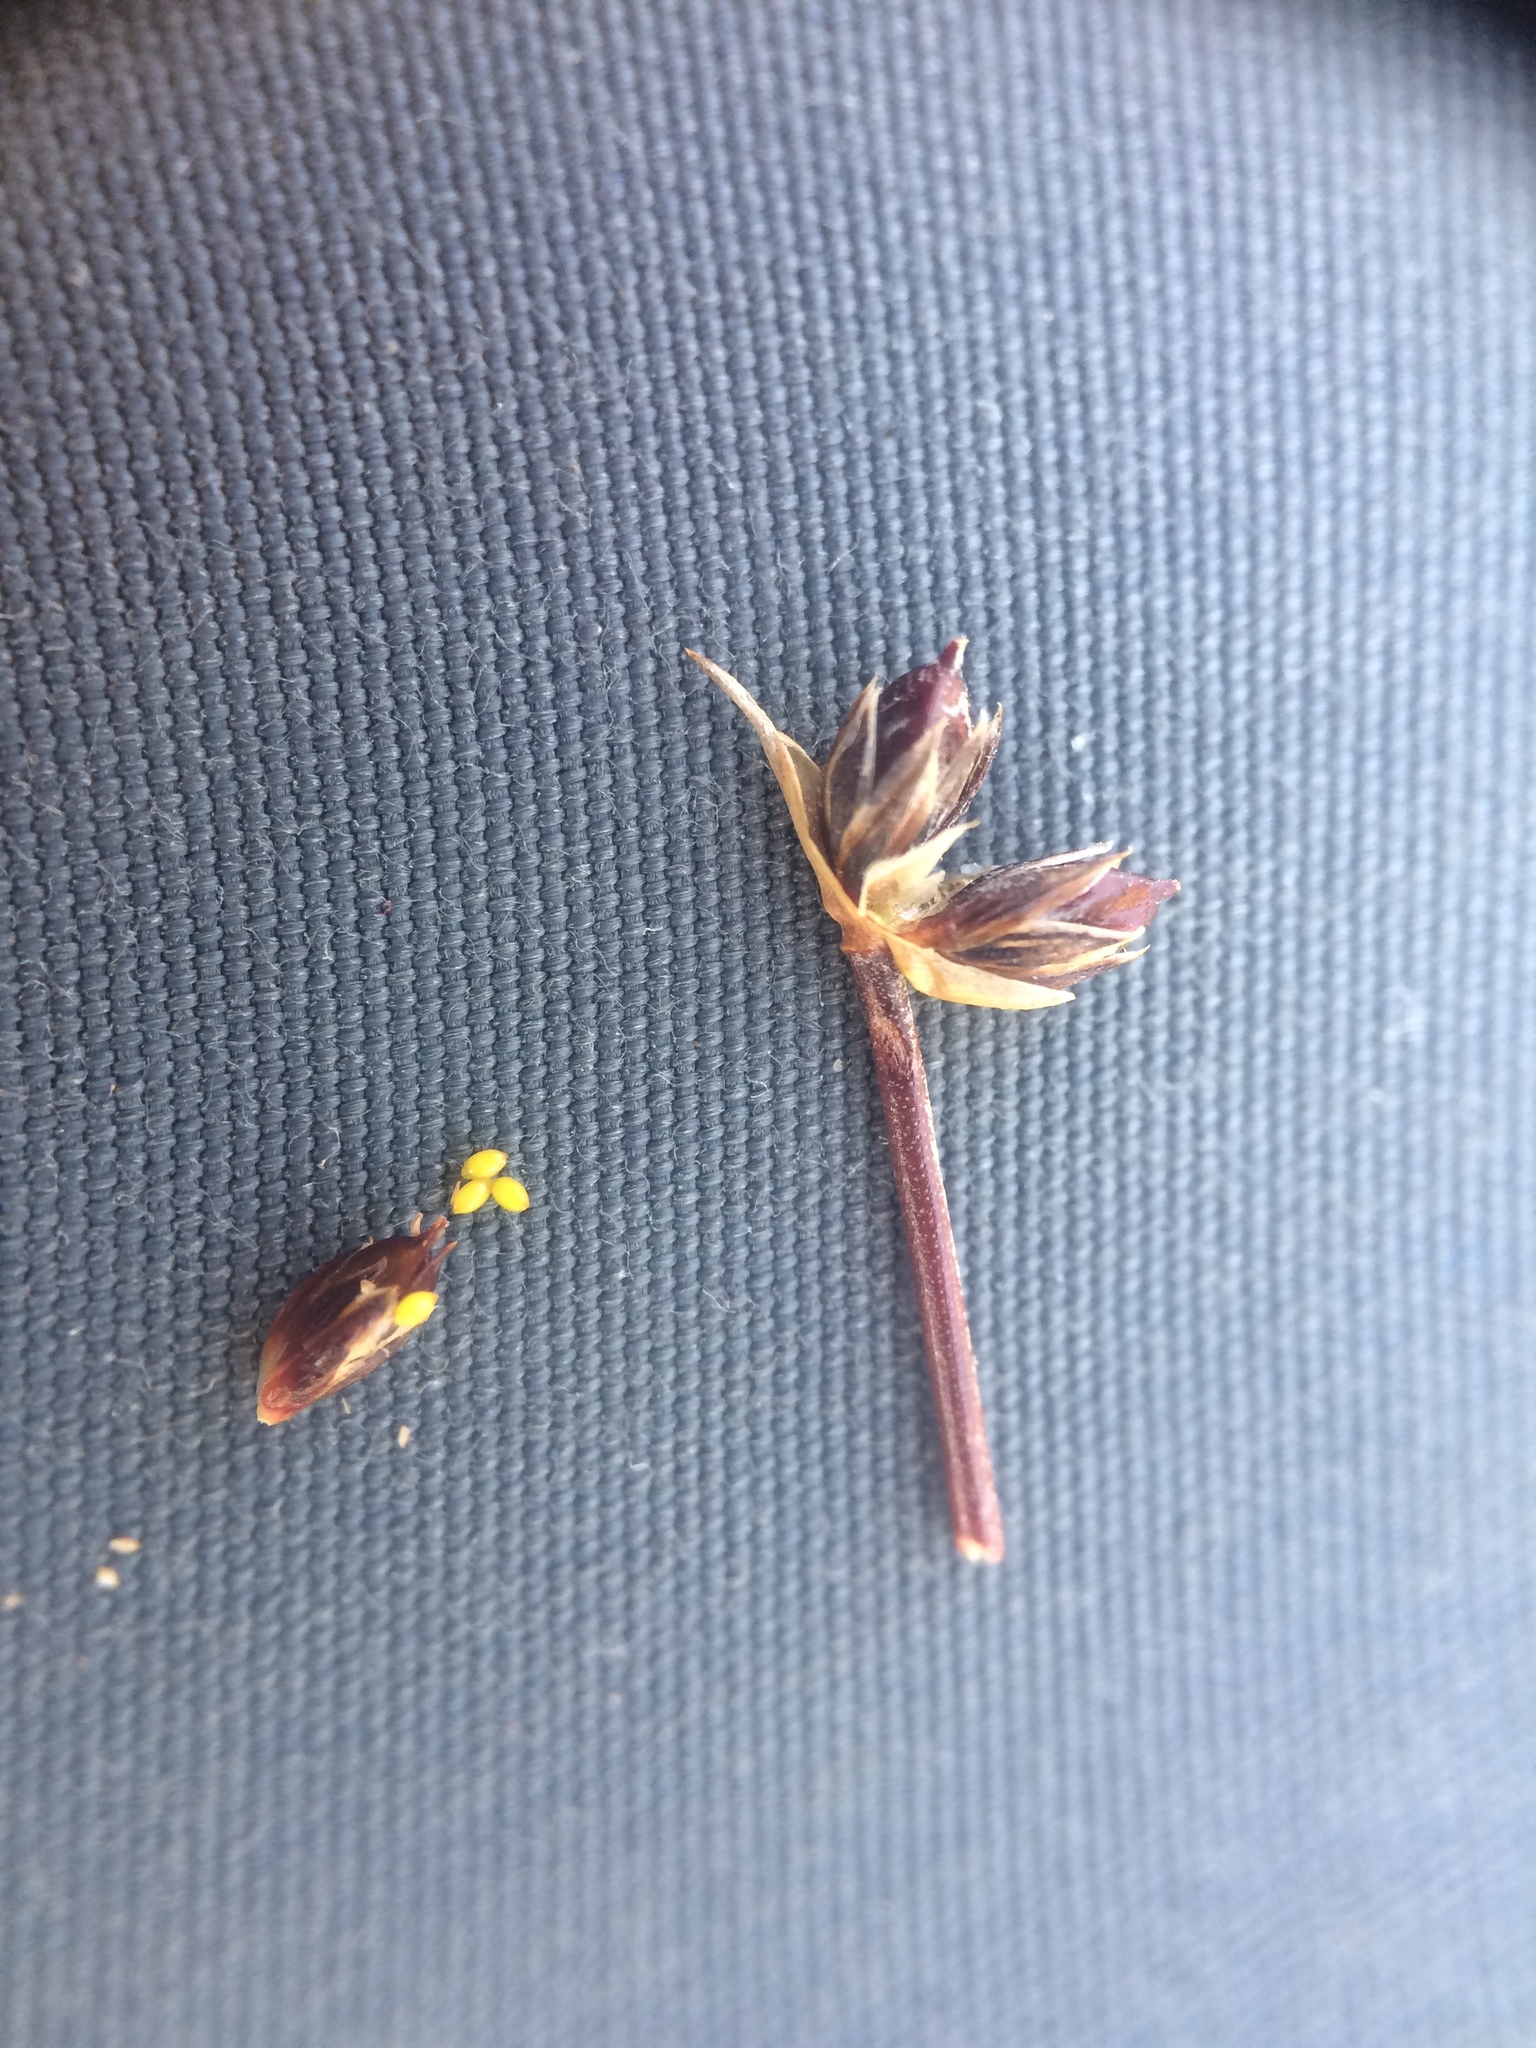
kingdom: Plantae
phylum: Tracheophyta
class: Liliopsida
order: Poales
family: Juncaceae
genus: Juncus
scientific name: Juncus articulatus
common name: Jointed rush
